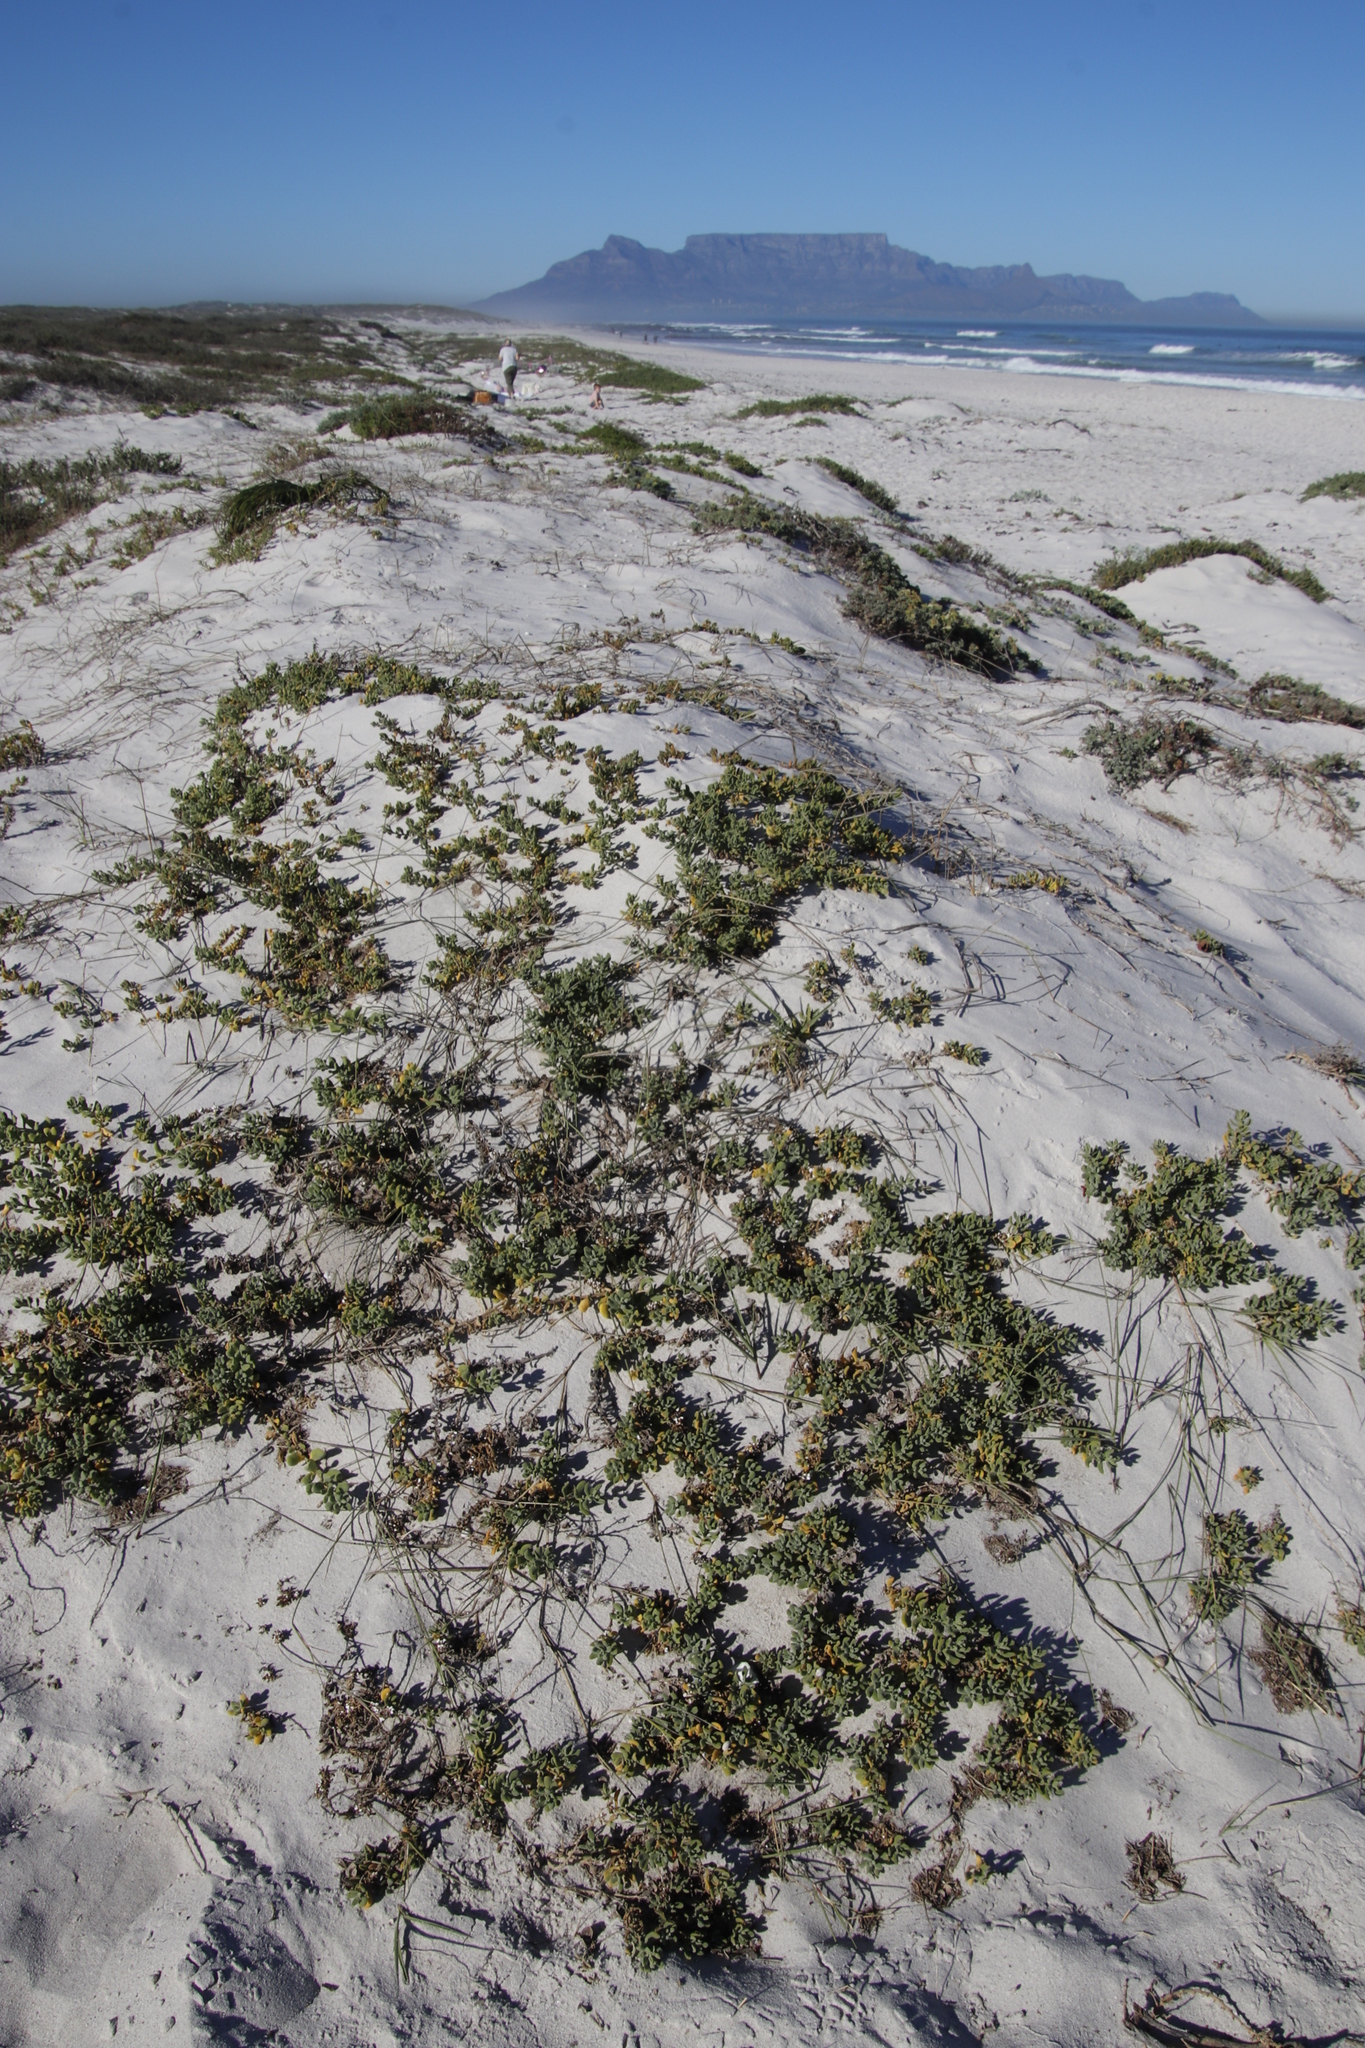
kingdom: Plantae
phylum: Tracheophyta
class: Magnoliopsida
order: Caryophyllales
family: Aizoaceae
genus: Tetragonia
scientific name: Tetragonia decumbens
